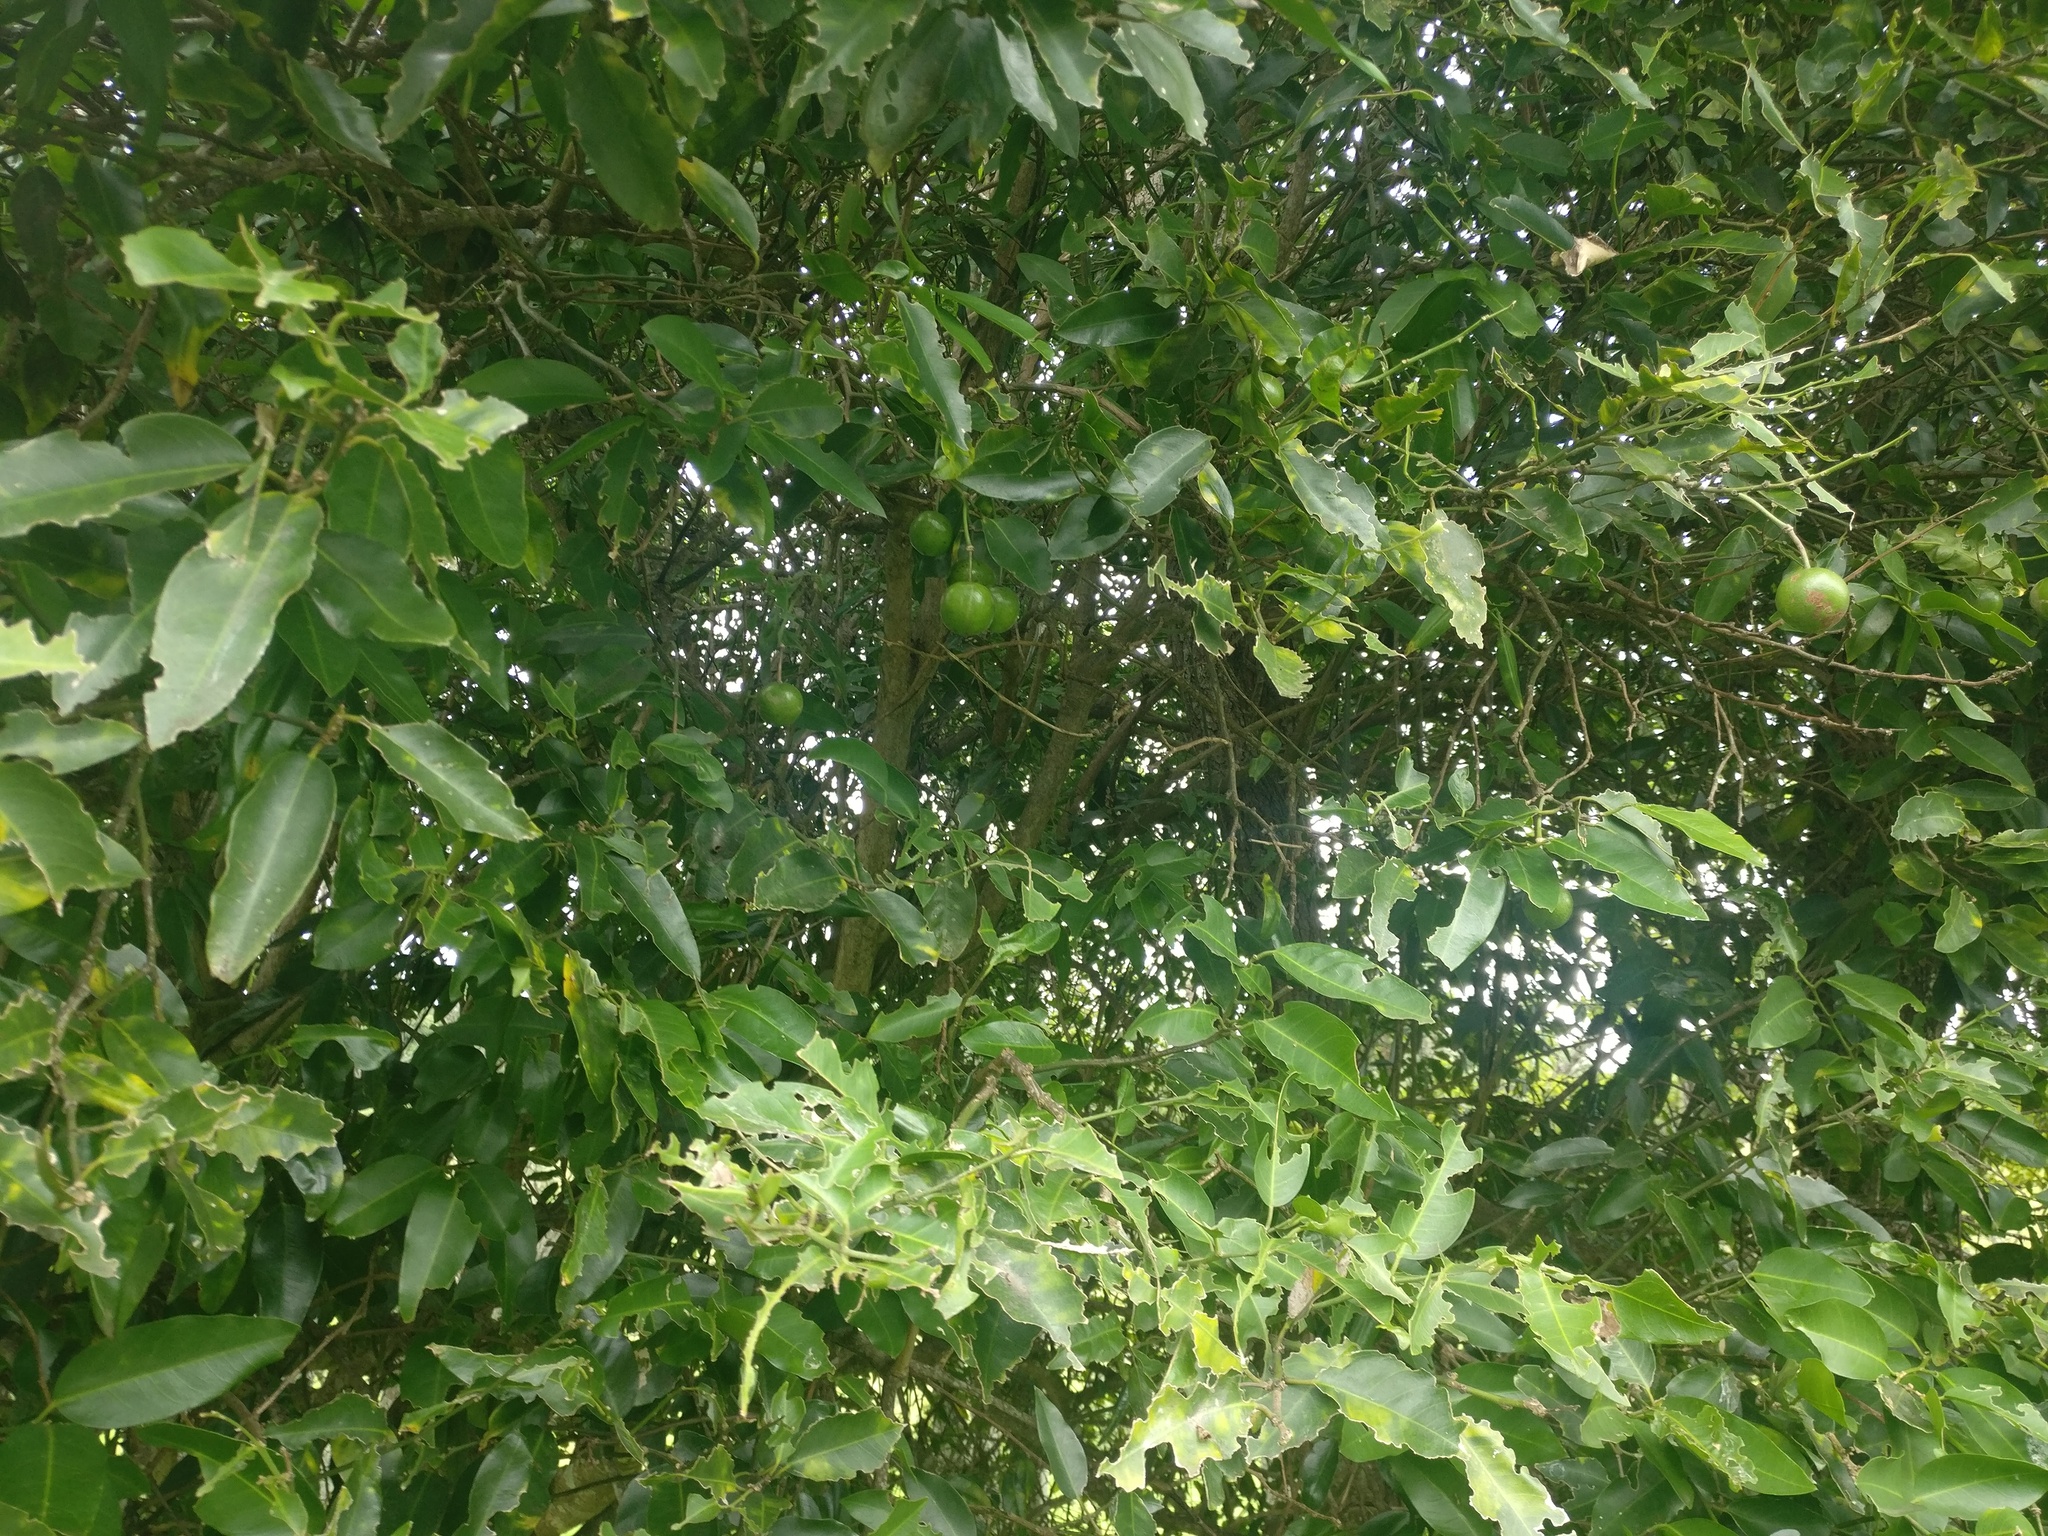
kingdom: Plantae
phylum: Tracheophyta
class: Magnoliopsida
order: Brassicales
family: Capparaceae
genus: Capparis
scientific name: Capparis arborea
